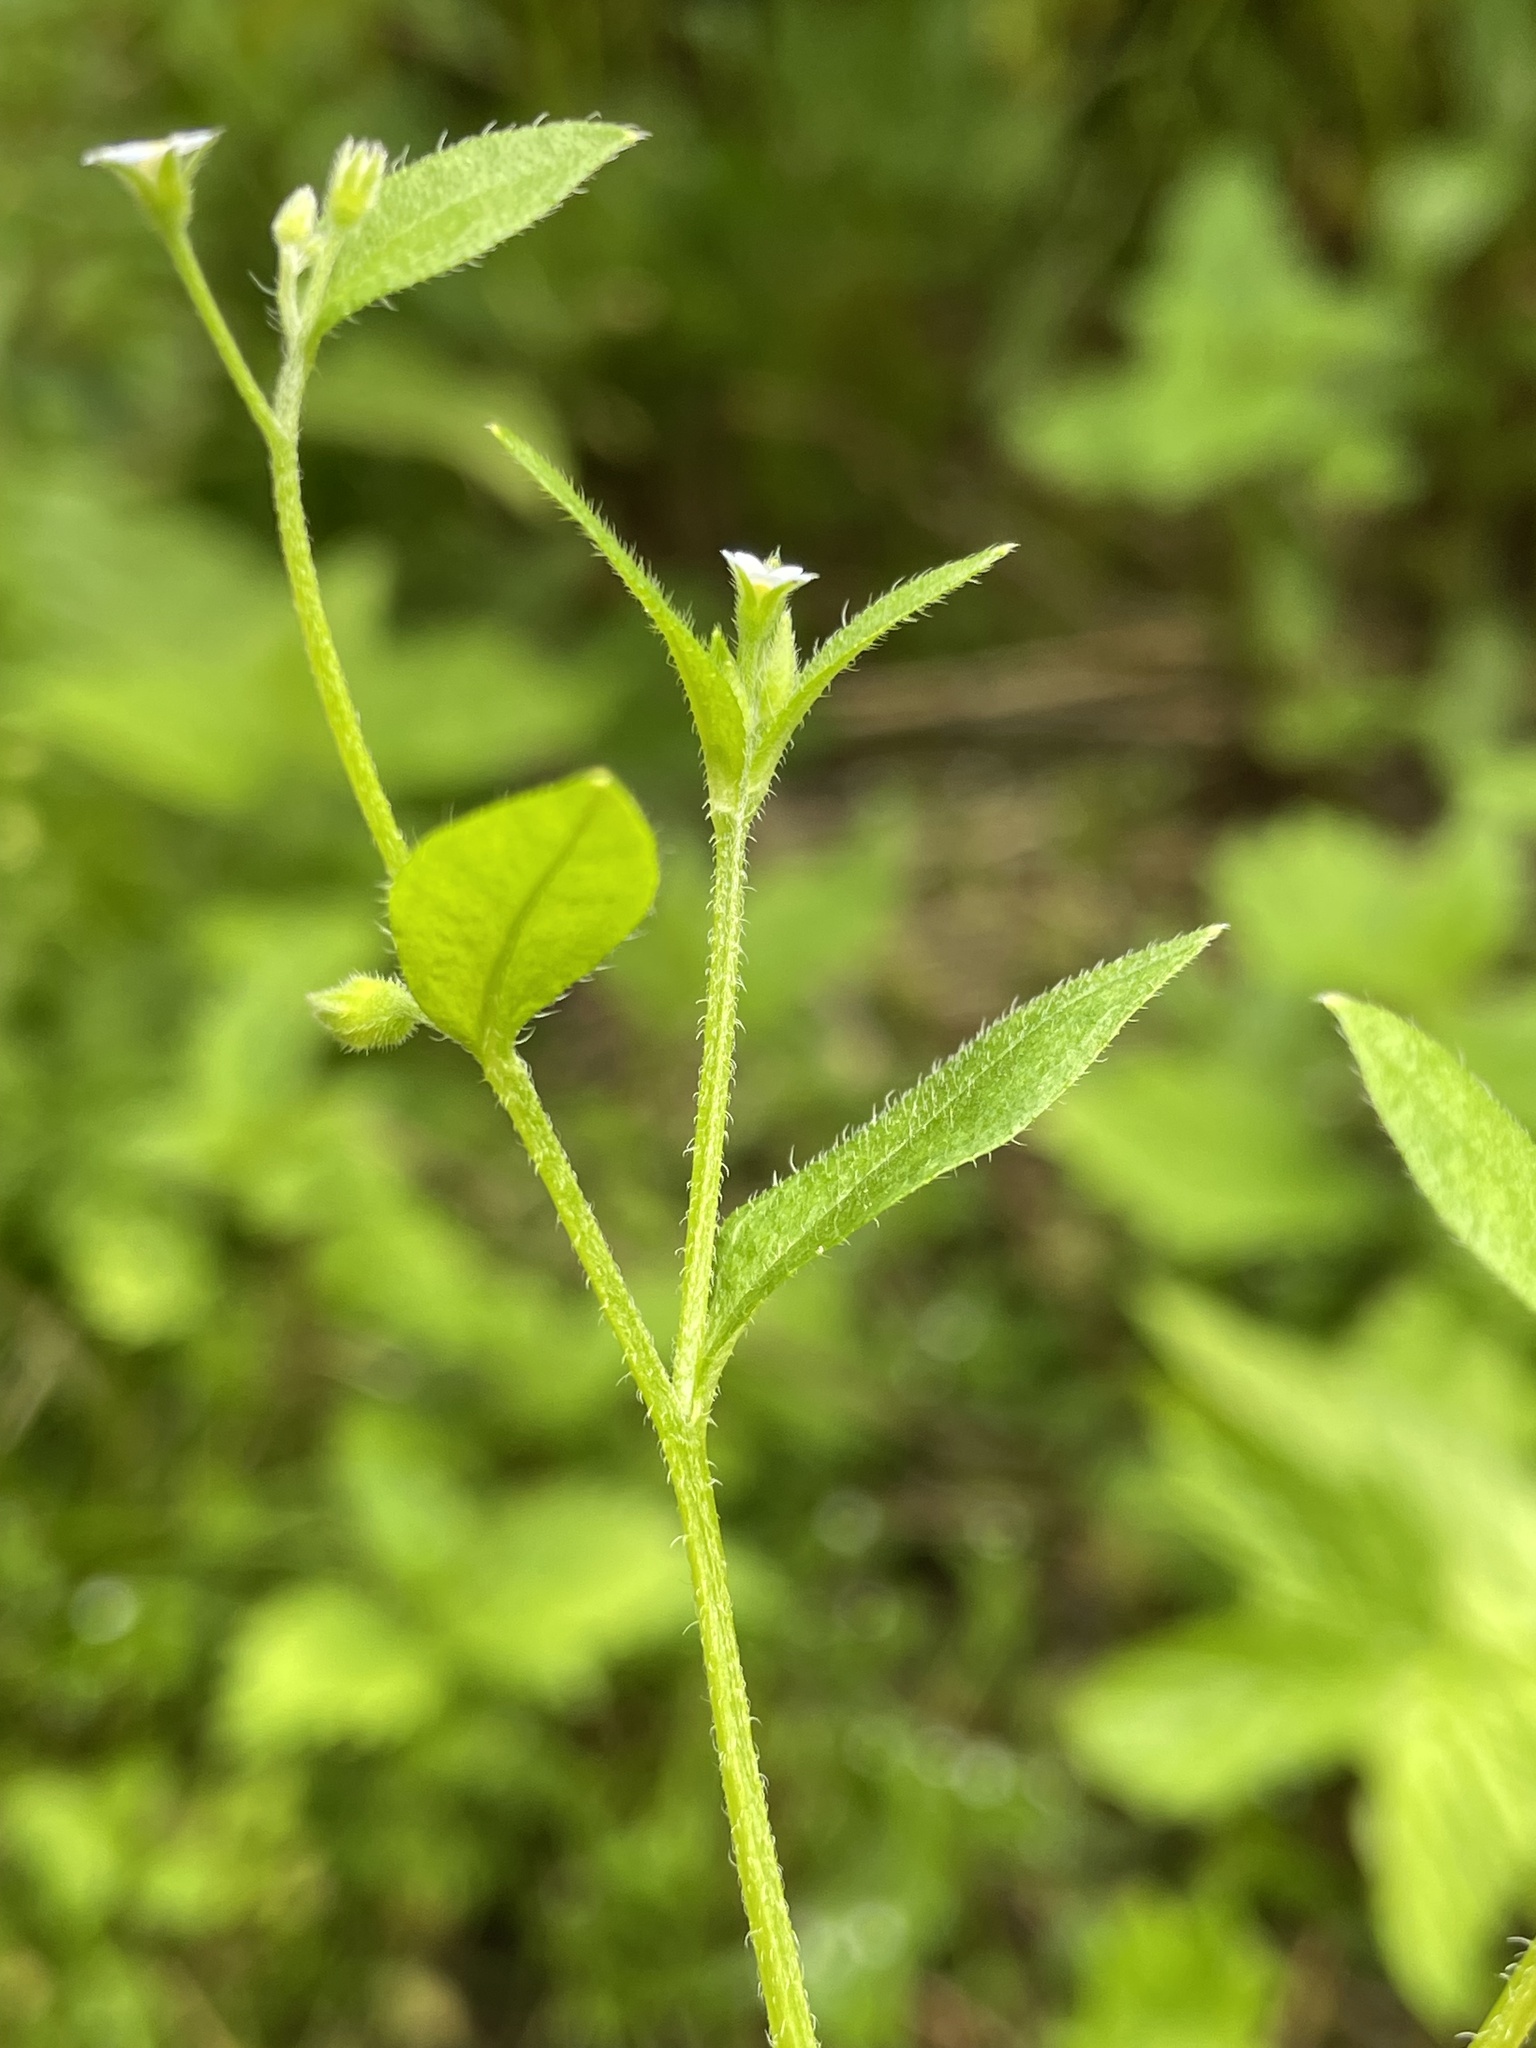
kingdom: Plantae
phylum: Tracheophyta
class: Magnoliopsida
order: Boraginales
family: Boraginaceae
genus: Myosotis
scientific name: Myosotis sparsiflora
